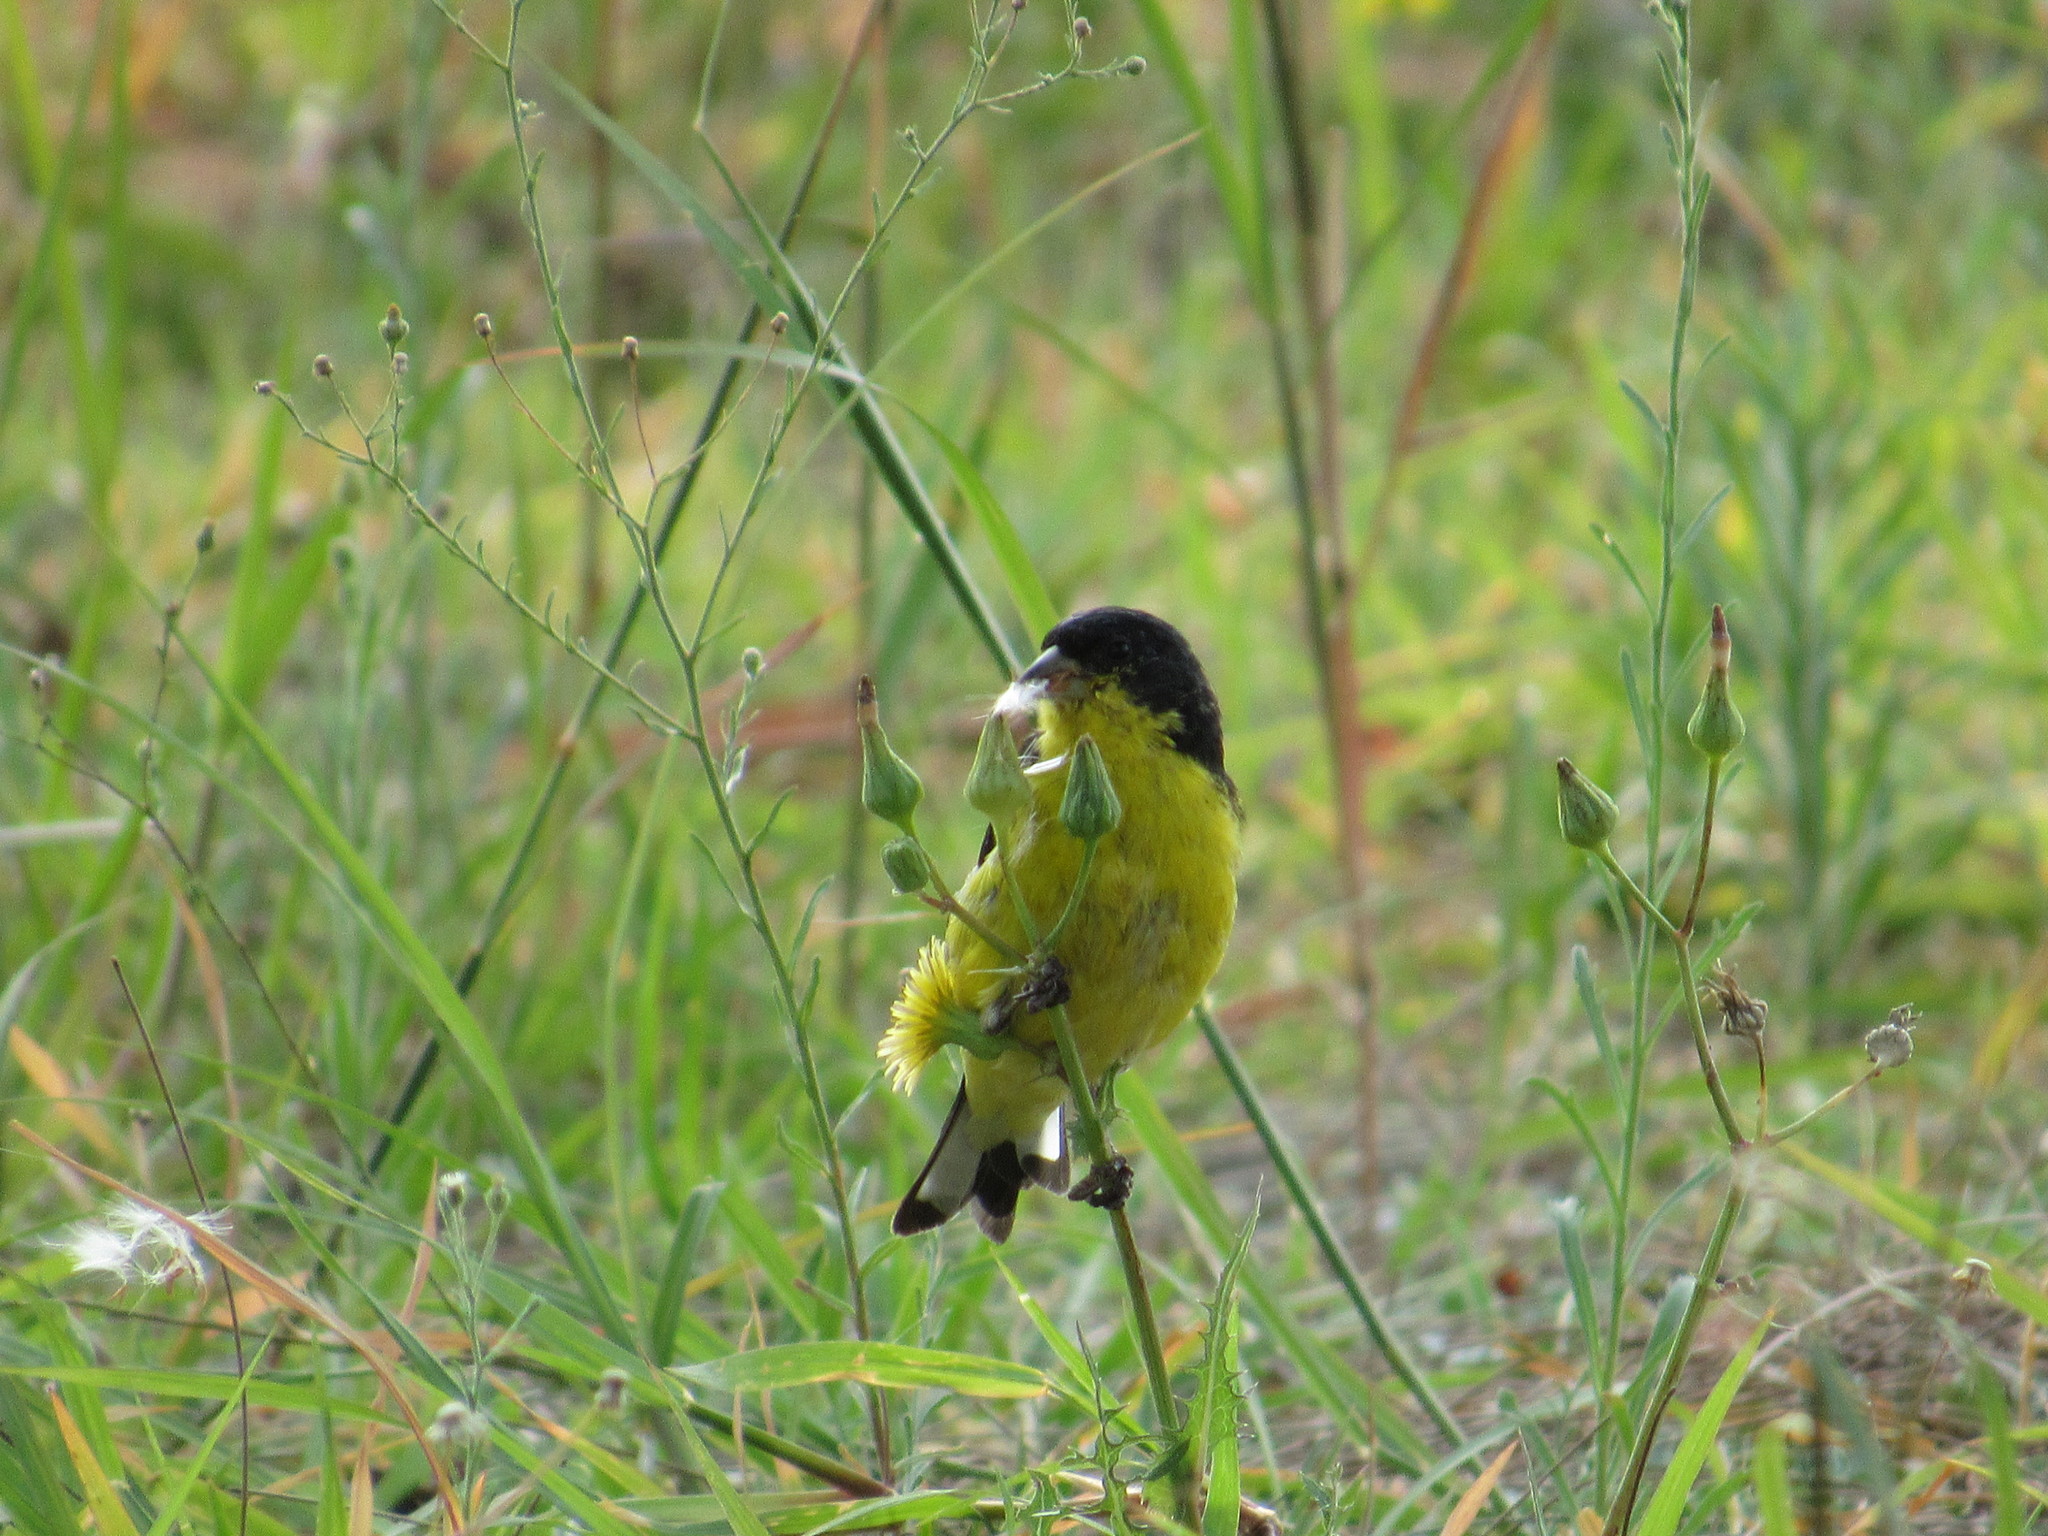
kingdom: Animalia
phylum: Chordata
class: Aves
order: Passeriformes
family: Fringillidae
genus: Spinus
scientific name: Spinus psaltria
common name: Lesser goldfinch
